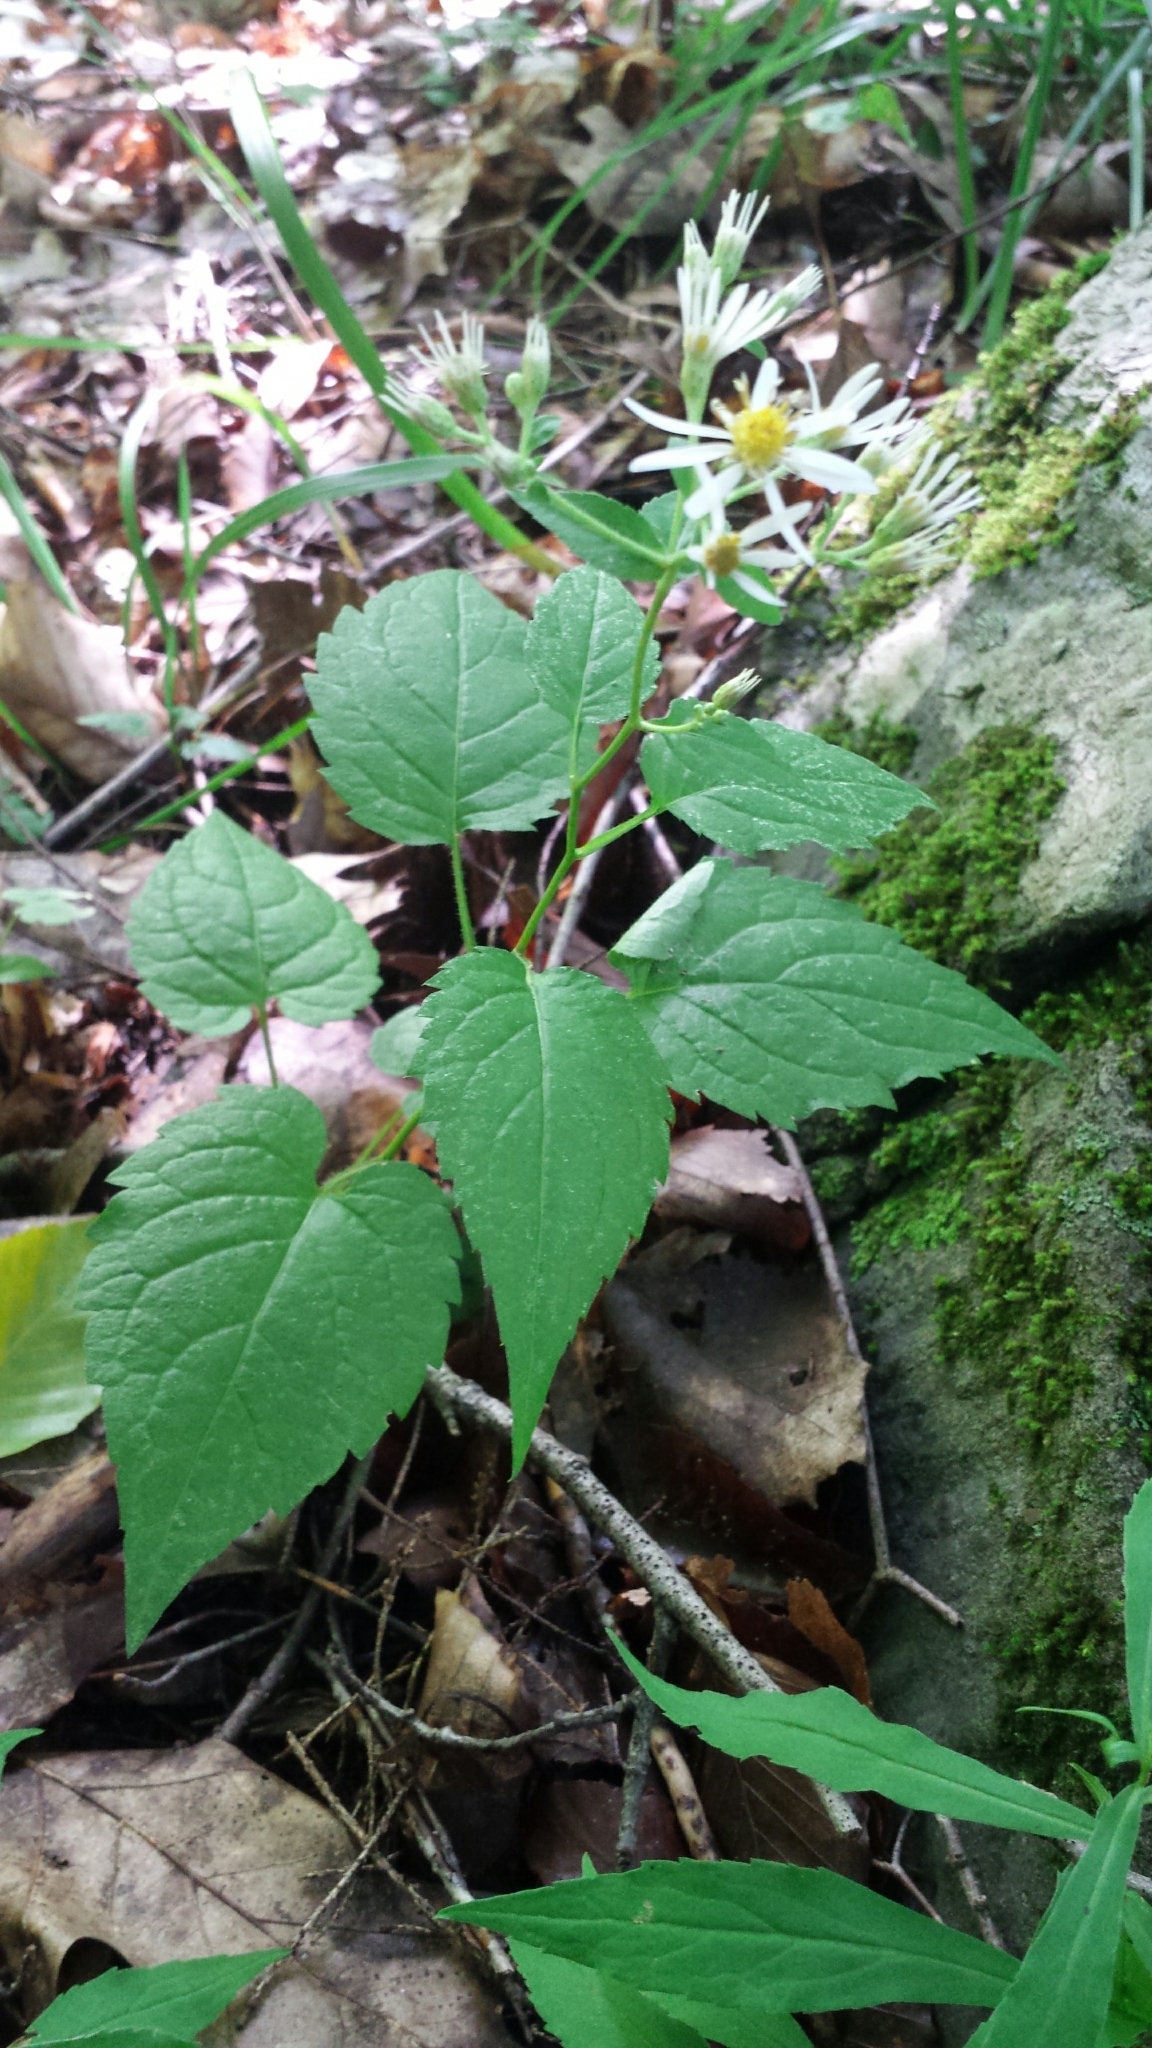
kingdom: Plantae
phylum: Tracheophyta
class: Magnoliopsida
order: Asterales
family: Asteraceae
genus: Eurybia
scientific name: Eurybia divaricata
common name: White wood aster
